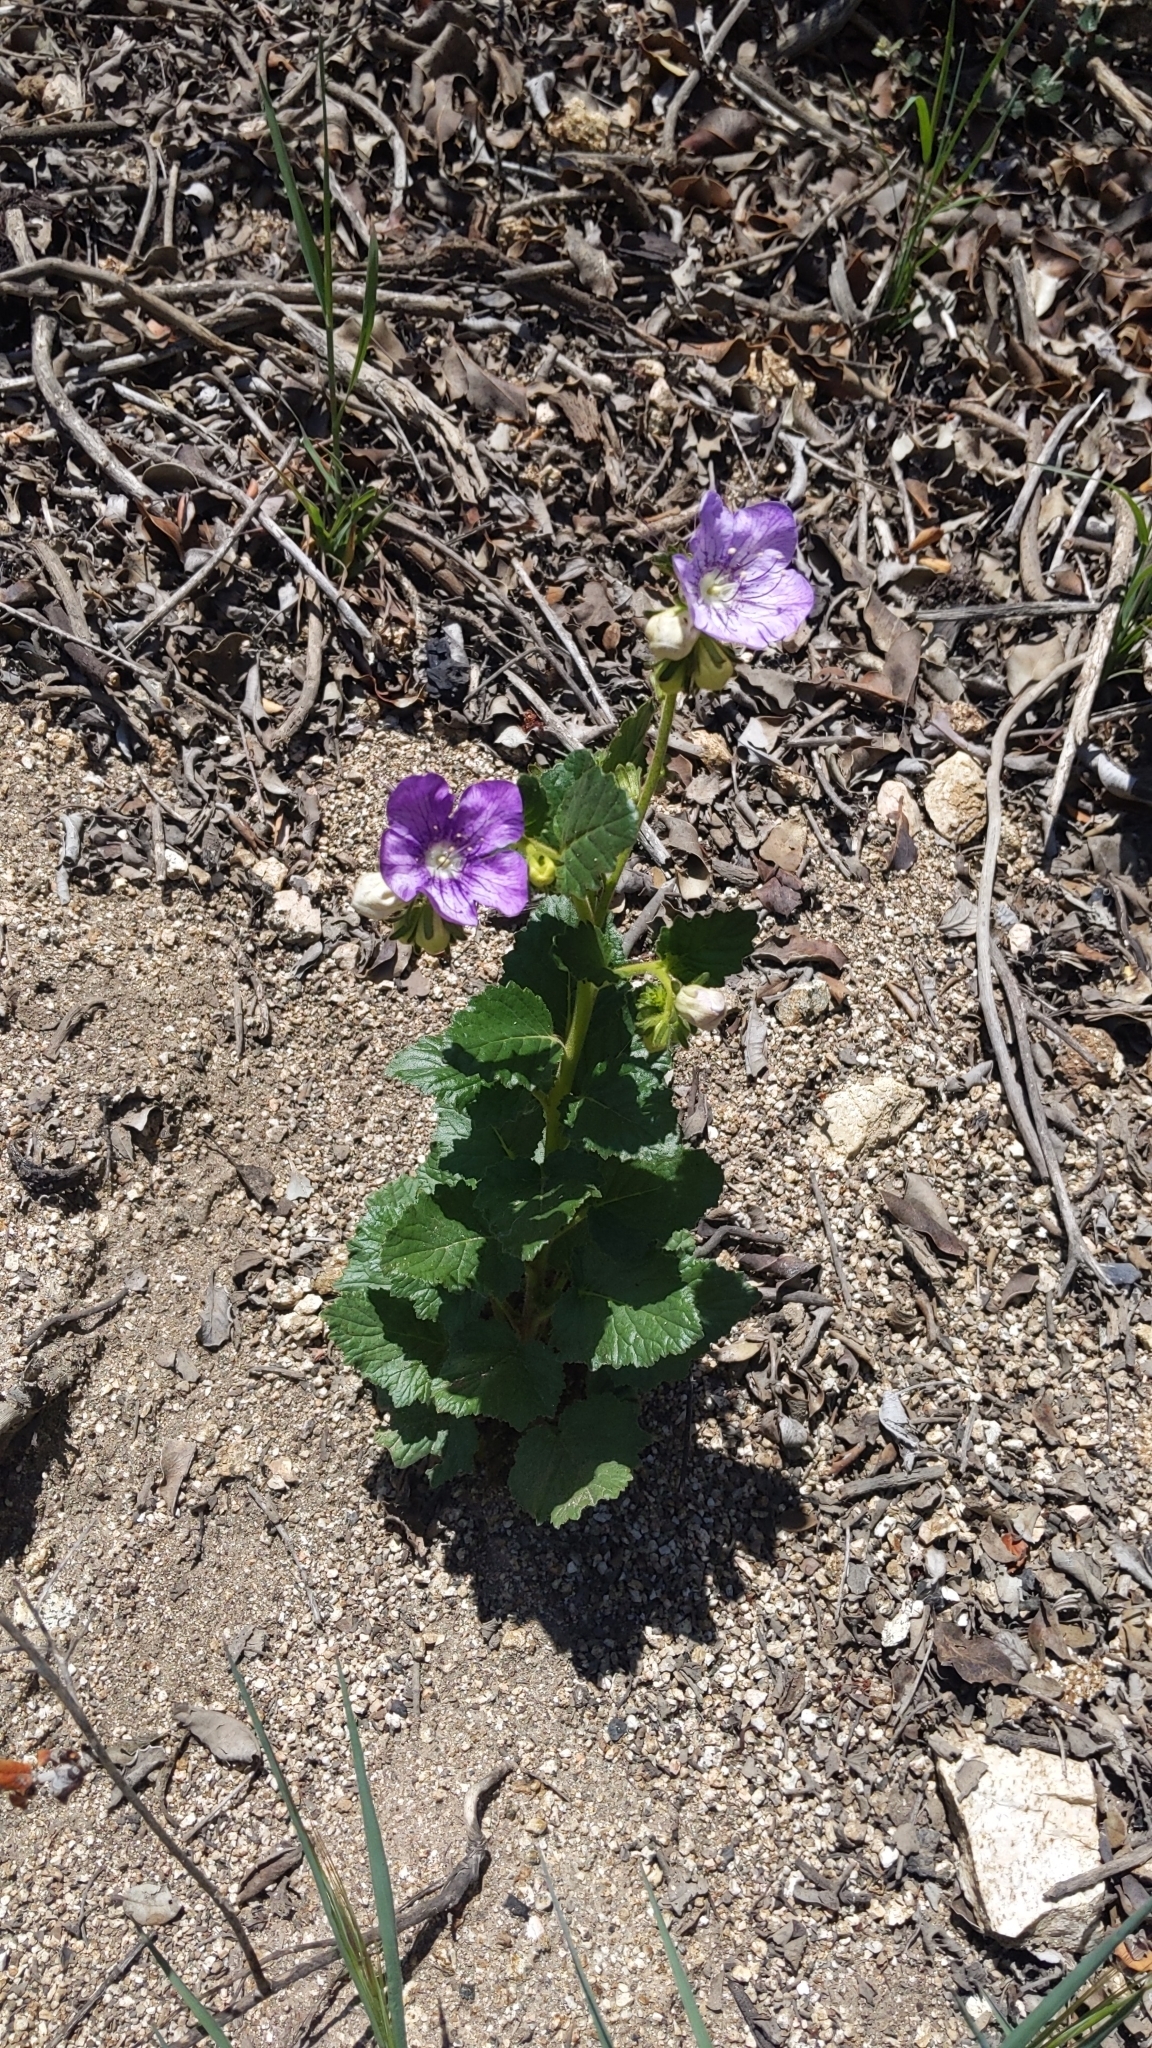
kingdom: Plantae
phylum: Tracheophyta
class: Magnoliopsida
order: Boraginales
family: Hydrophyllaceae
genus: Phacelia
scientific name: Phacelia grandiflora
